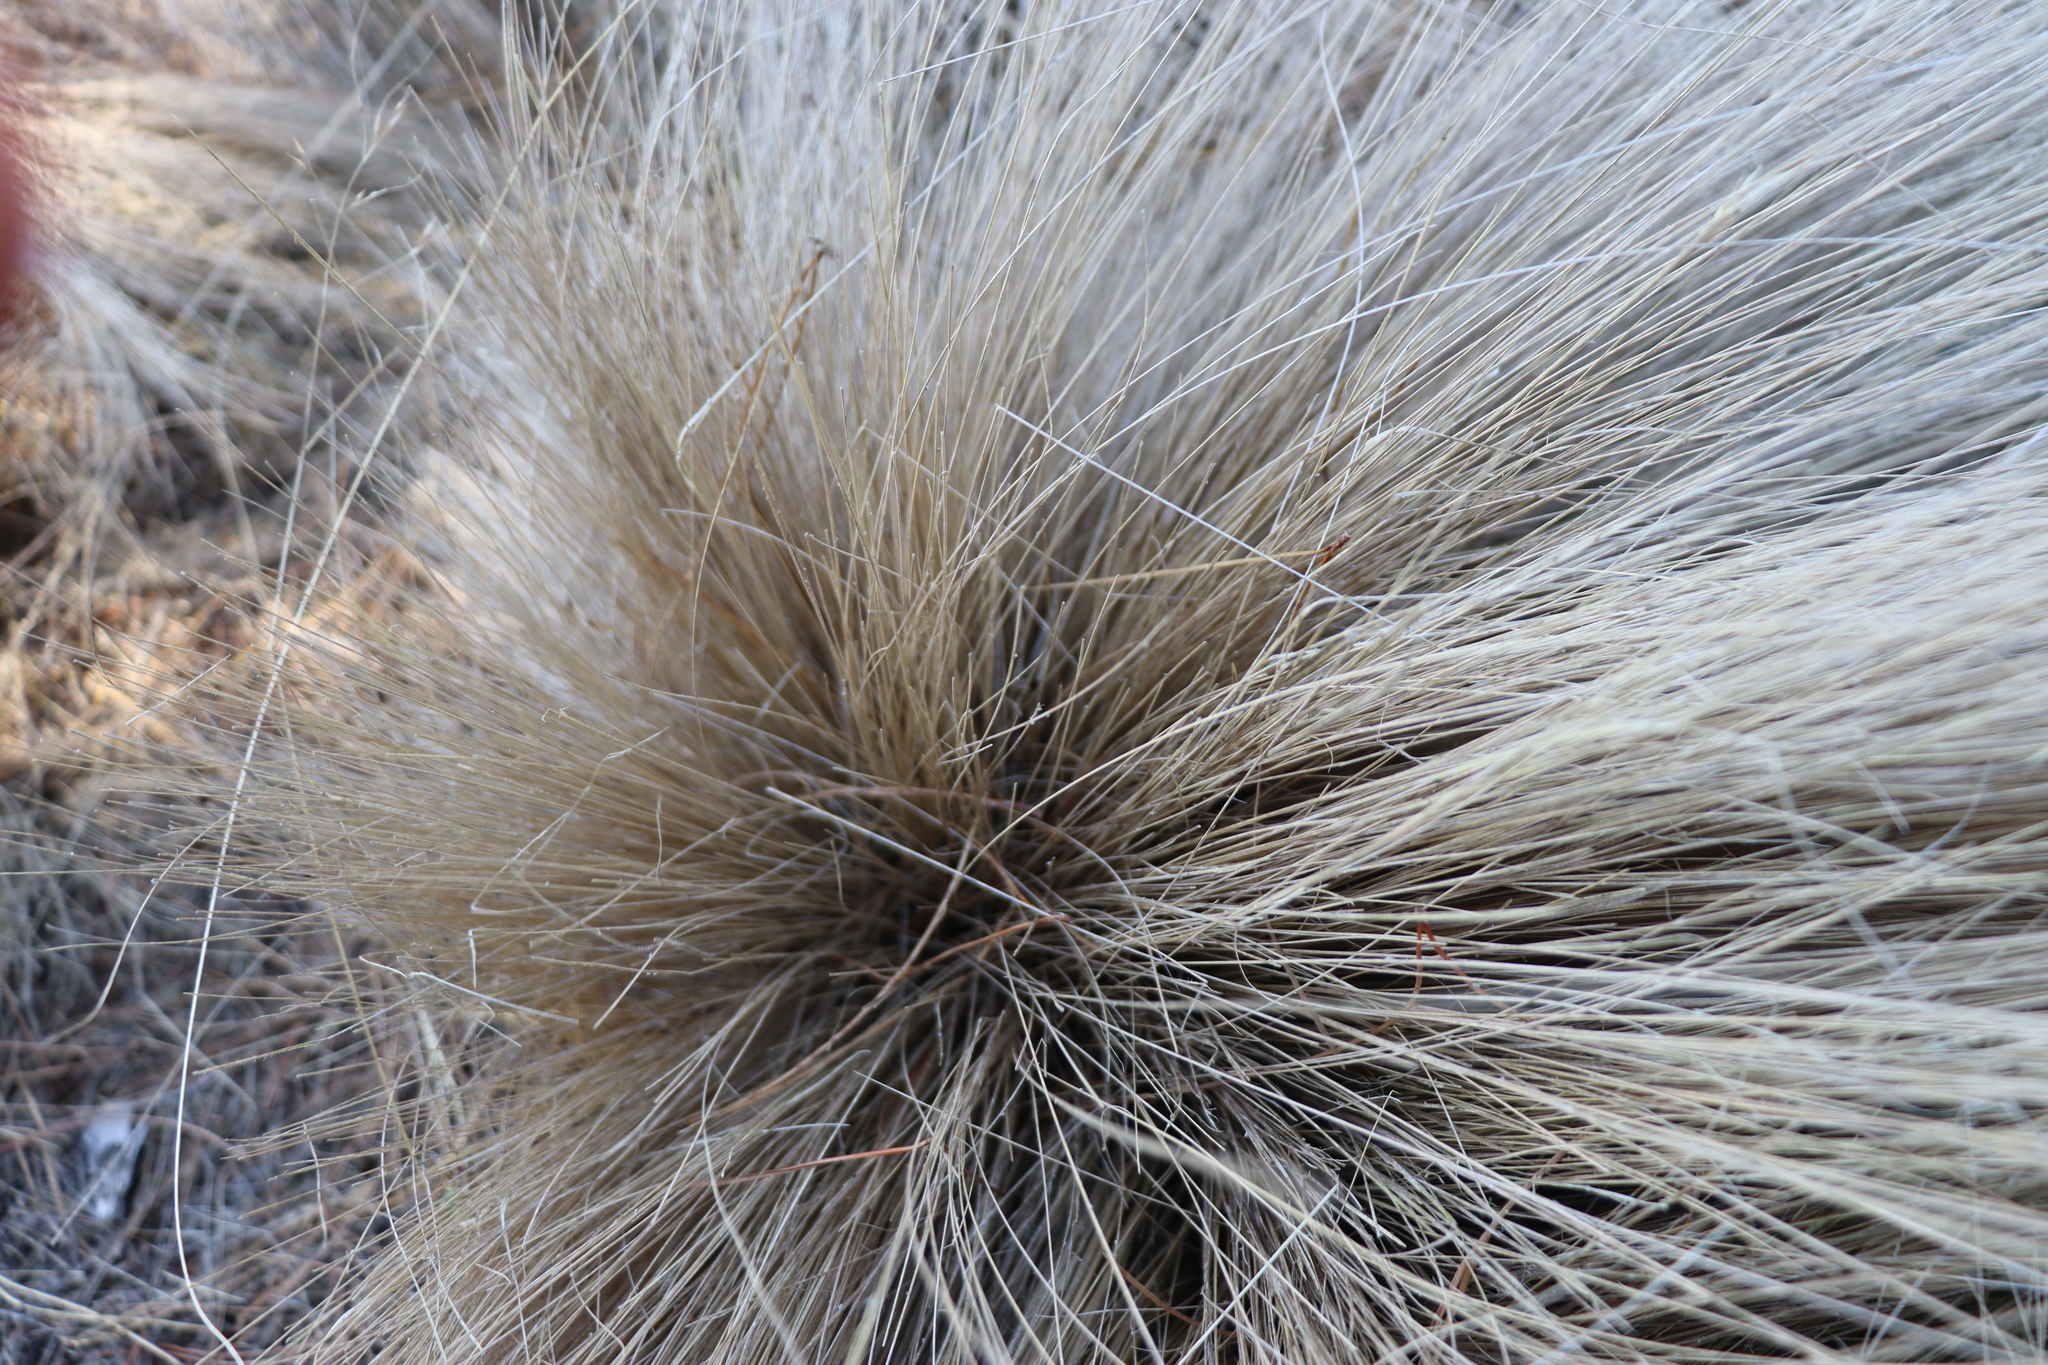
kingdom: Plantae
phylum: Tracheophyta
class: Liliopsida
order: Poales
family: Poaceae
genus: Nassella
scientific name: Nassella trichotoma
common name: Serrated tussock grass
